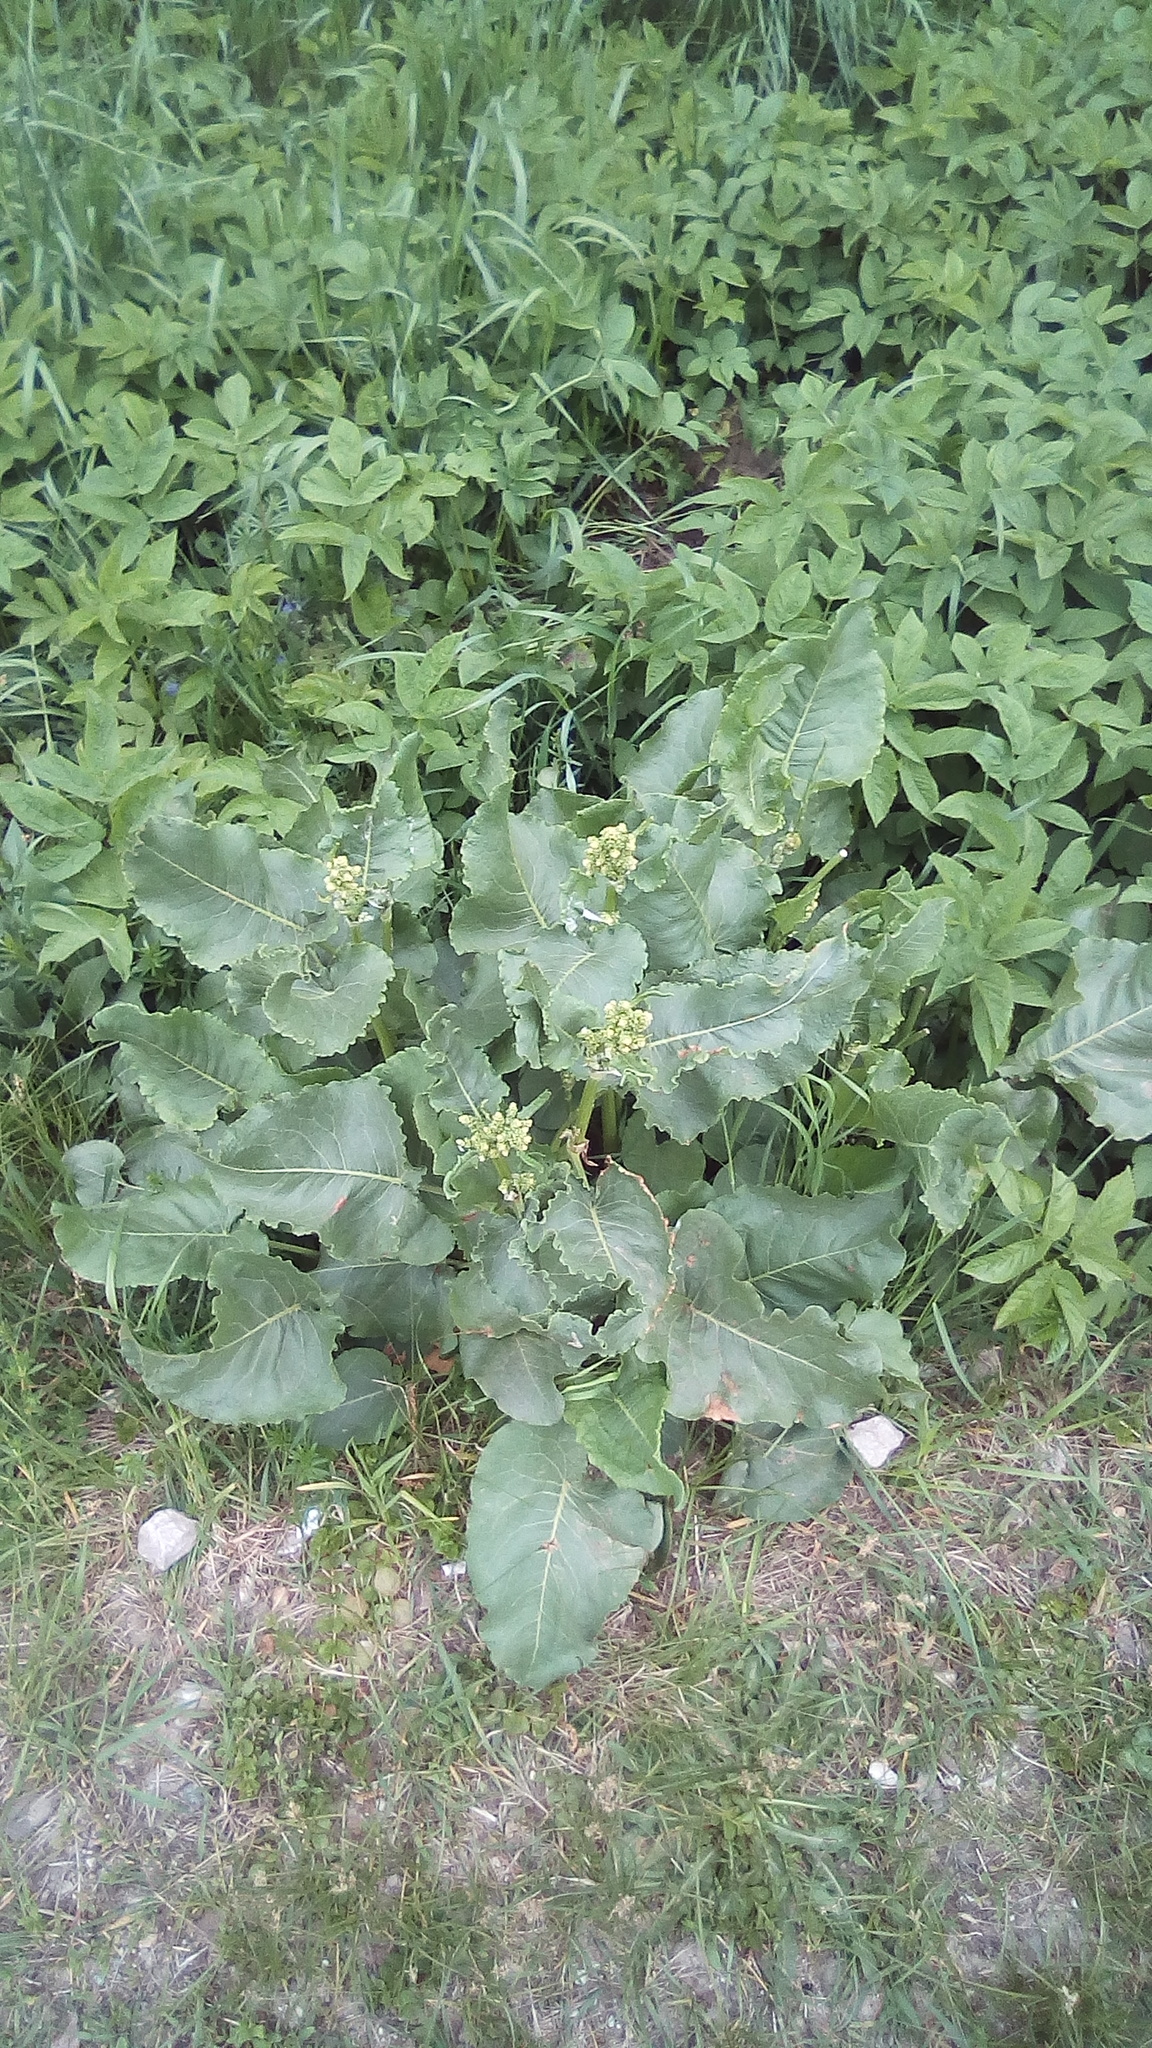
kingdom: Plantae
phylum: Tracheophyta
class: Magnoliopsida
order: Caryophyllales
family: Polygonaceae
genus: Rumex
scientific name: Rumex confertus
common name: Russian dock
